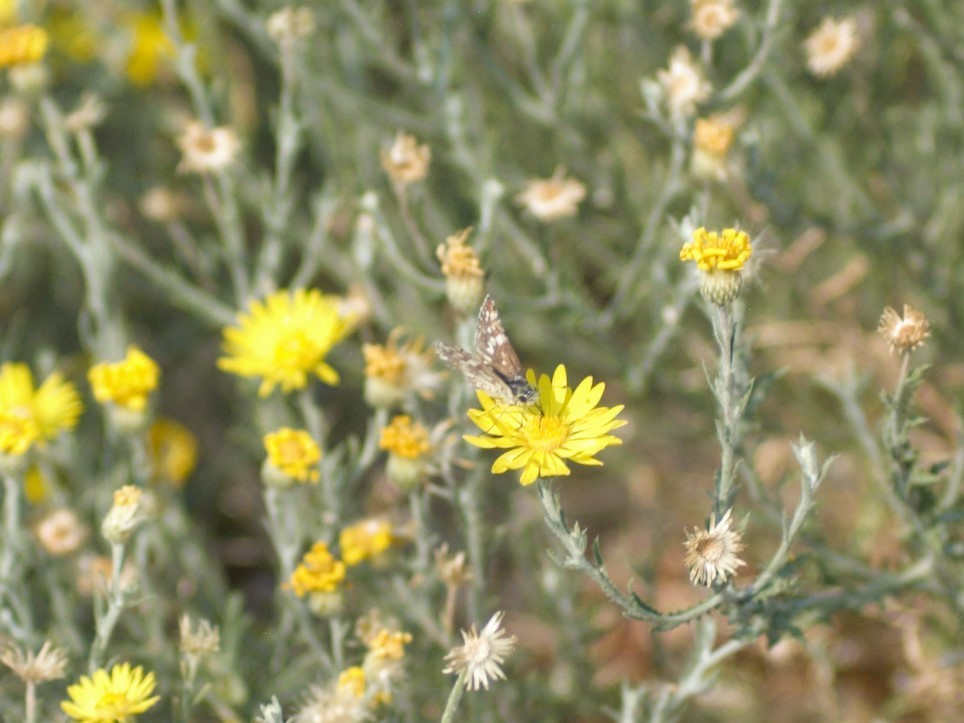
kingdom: Animalia
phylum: Arthropoda
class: Insecta
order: Lepidoptera
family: Hesperiidae
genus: Burnsius
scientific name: Burnsius
